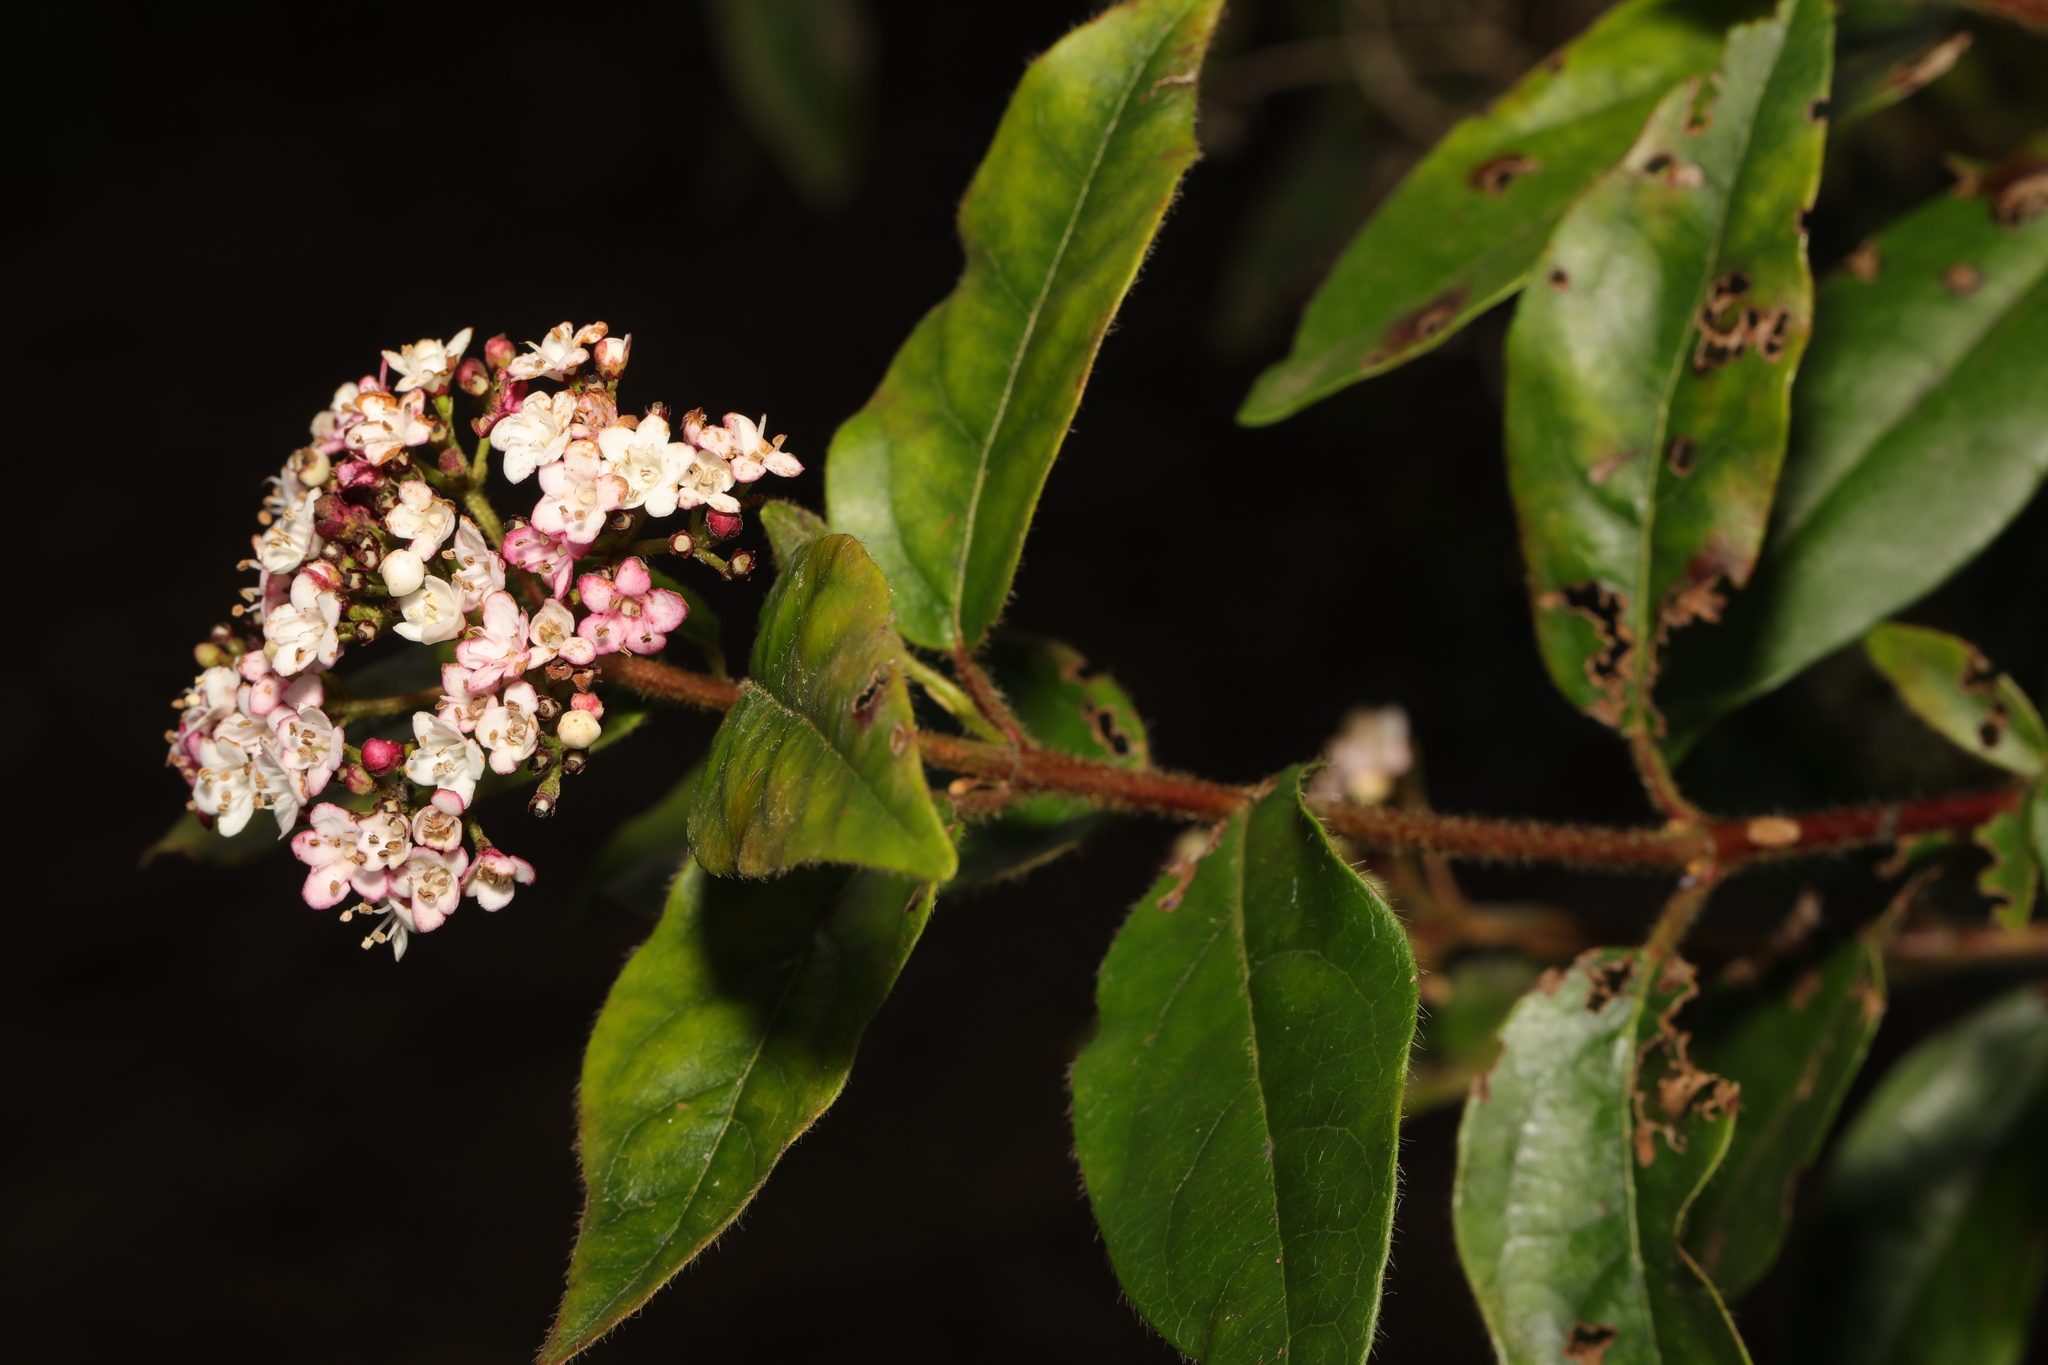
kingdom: Plantae
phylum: Tracheophyta
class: Magnoliopsida
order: Dipsacales
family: Viburnaceae
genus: Viburnum
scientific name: Viburnum tinus
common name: Laurustinus
